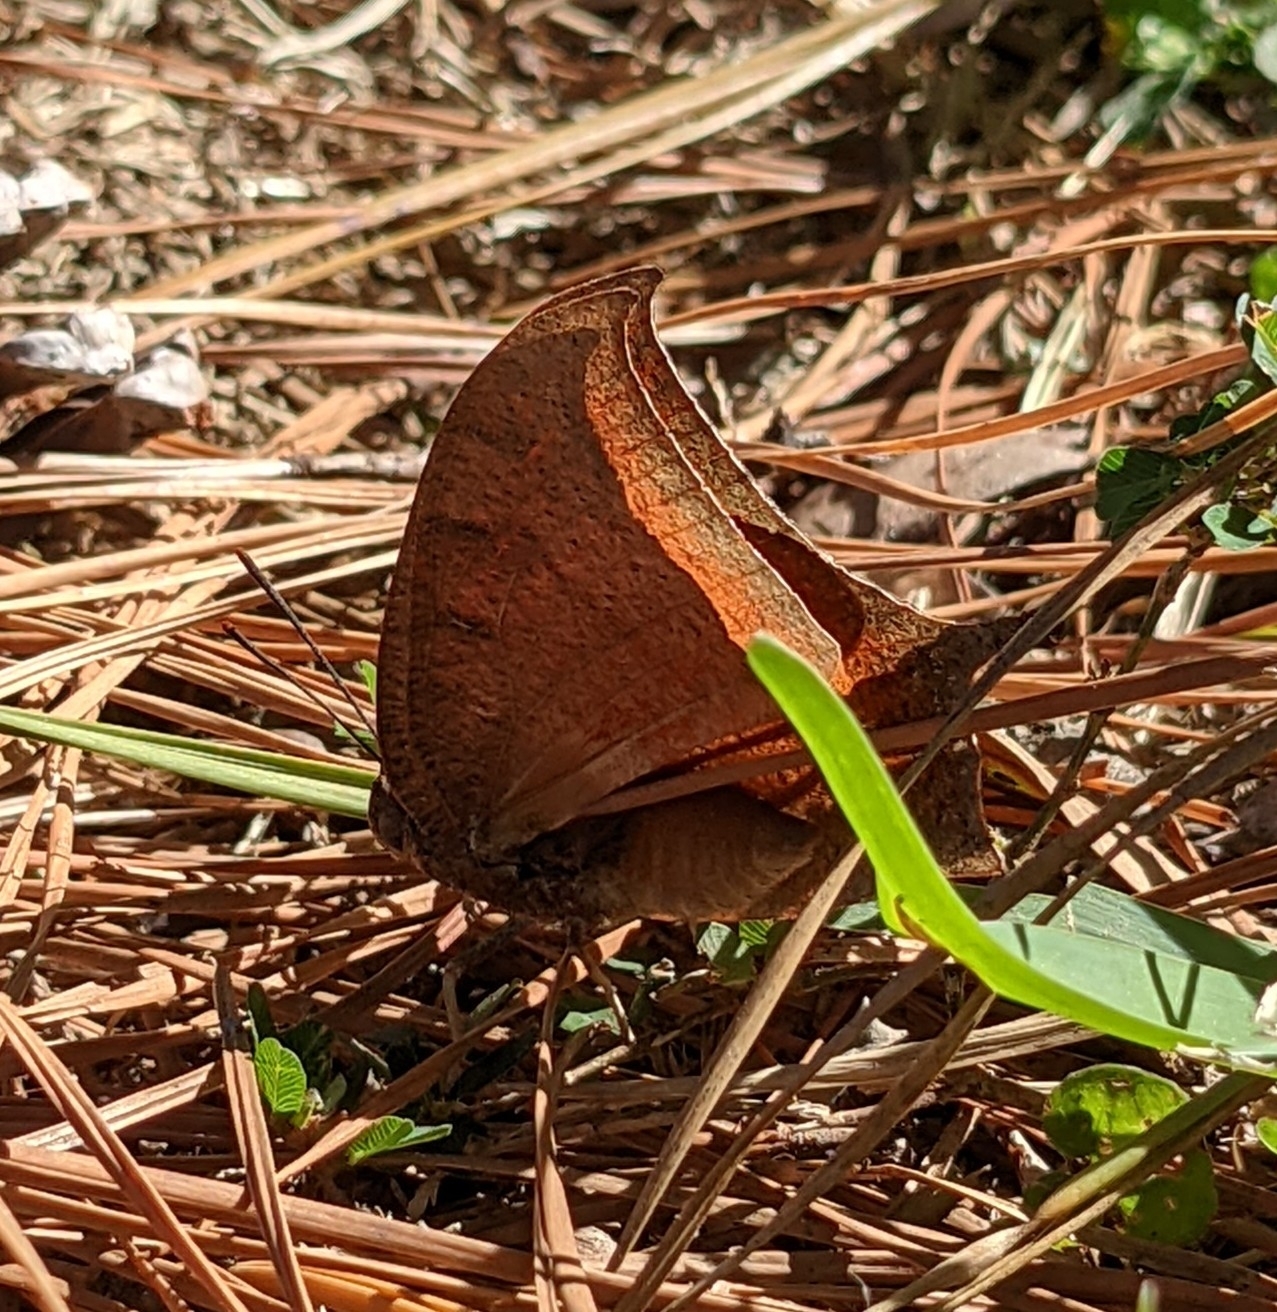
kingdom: Animalia
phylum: Arthropoda
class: Insecta
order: Lepidoptera
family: Nymphalidae
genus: Anaea
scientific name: Anaea andria
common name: Goatweed leafwing
